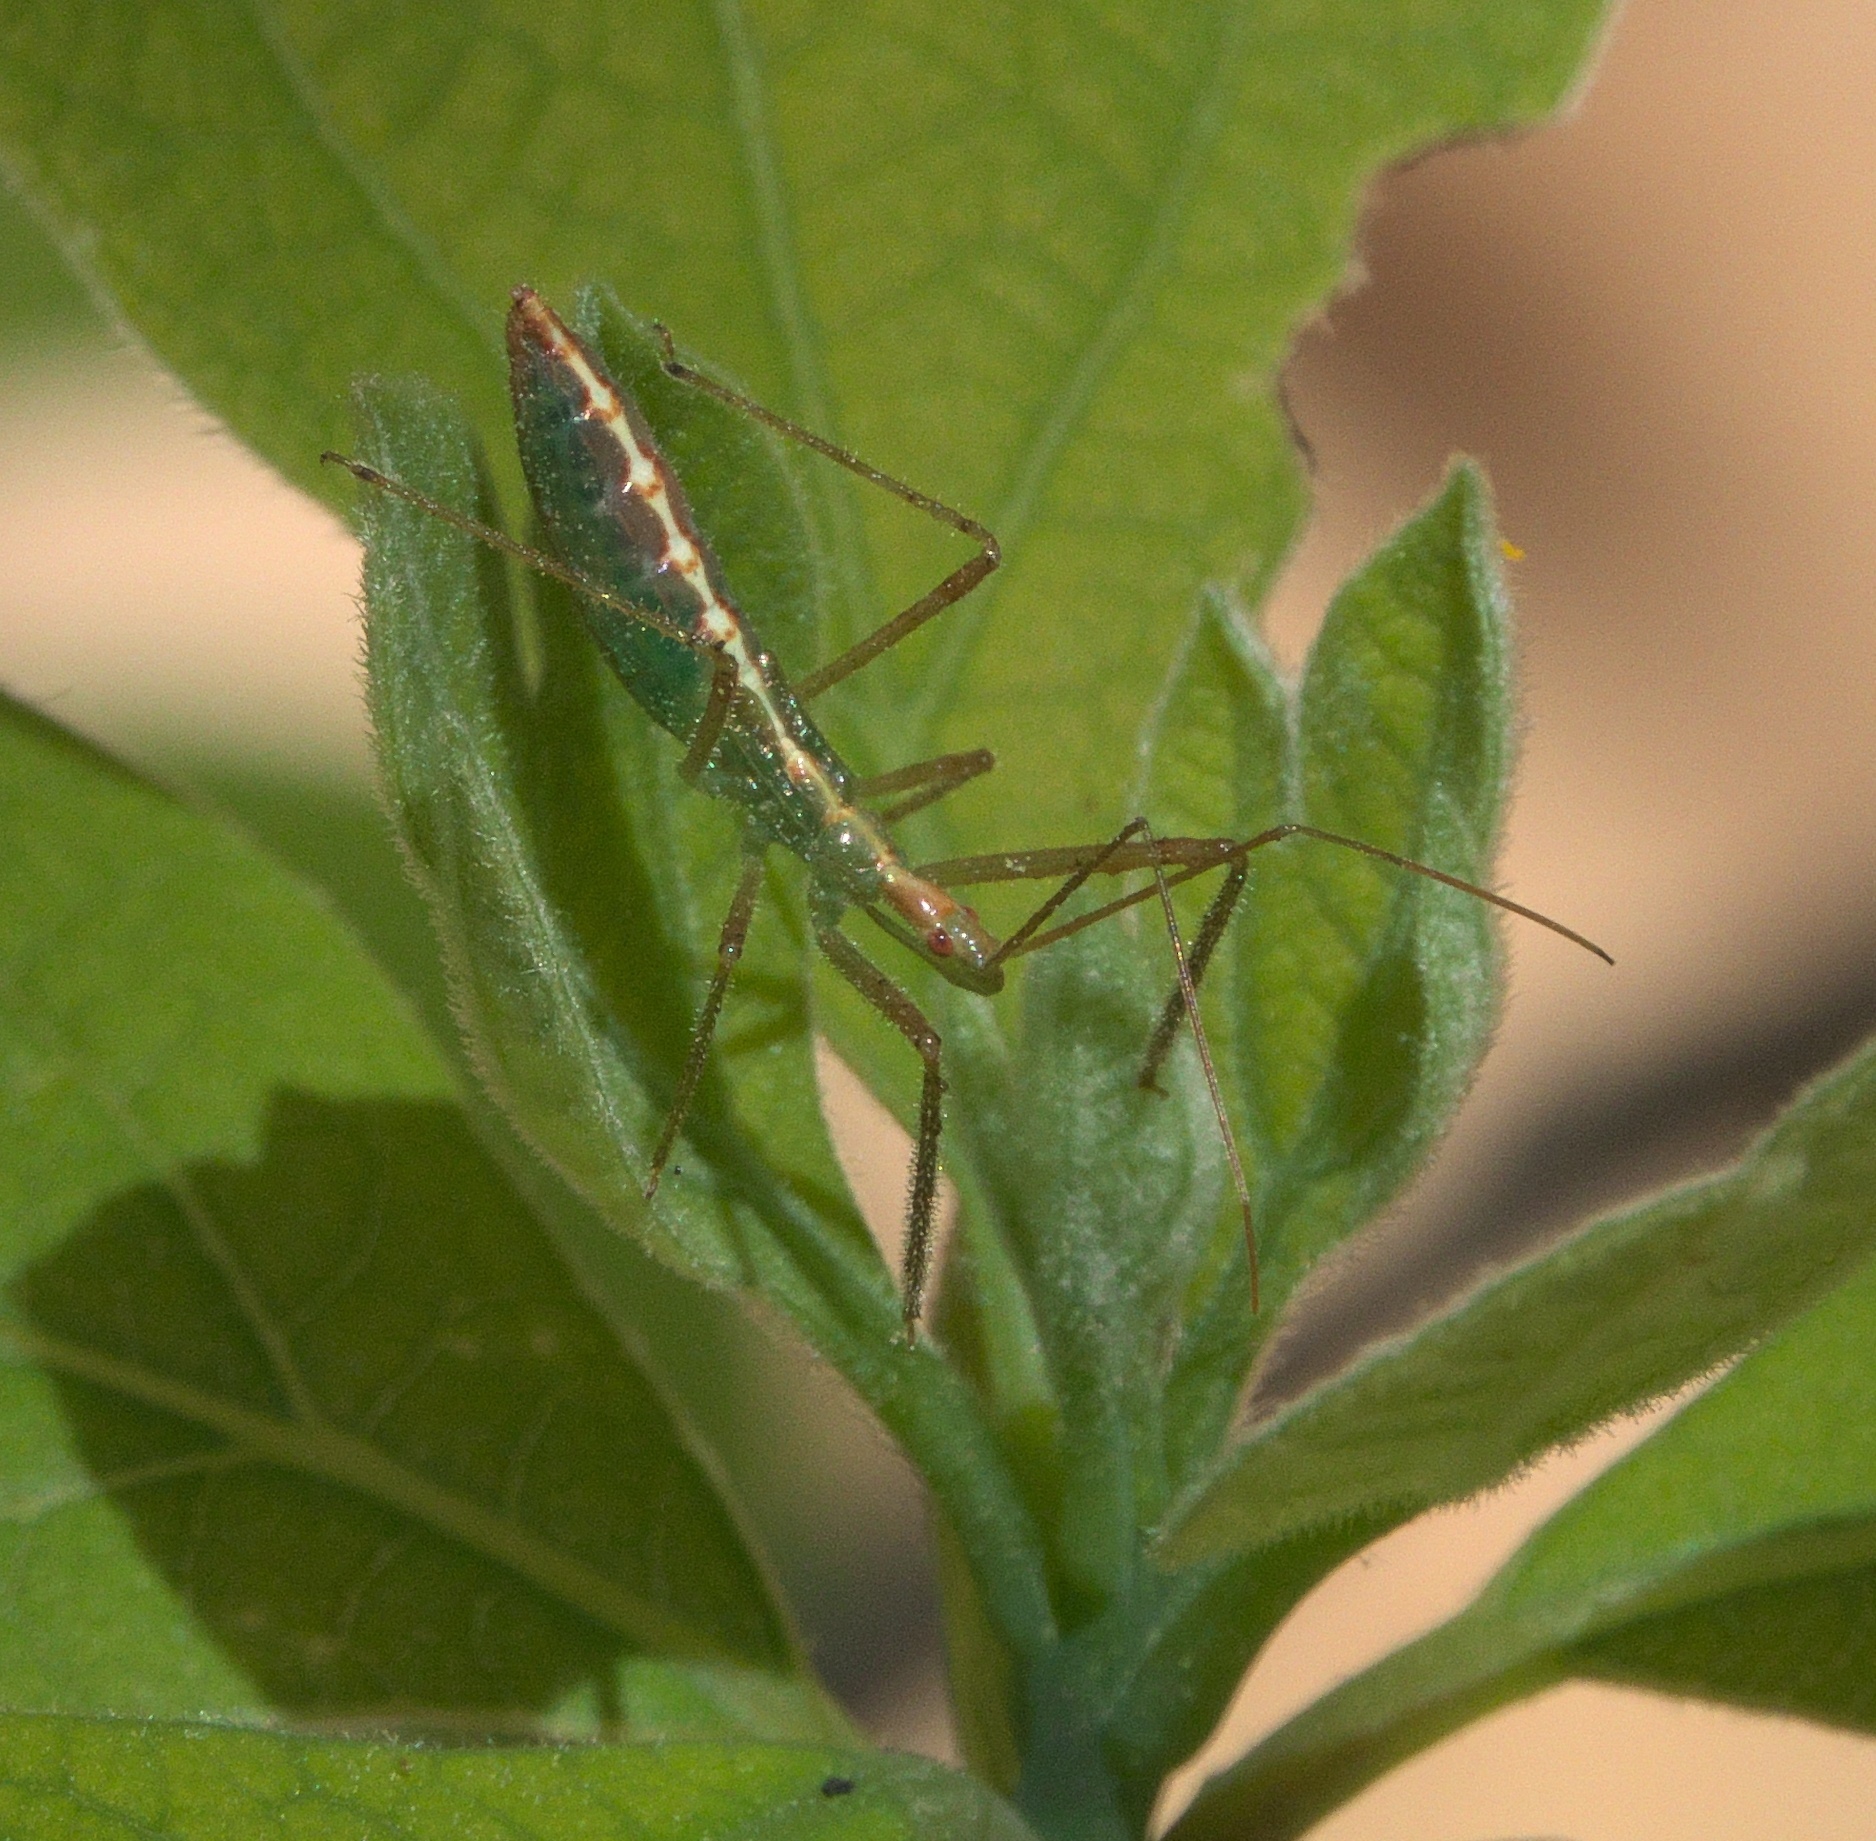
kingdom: Animalia
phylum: Arthropoda
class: Insecta
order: Hemiptera
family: Reduviidae
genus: Zelus
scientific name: Zelus luridus
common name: Pale green assassin bug
